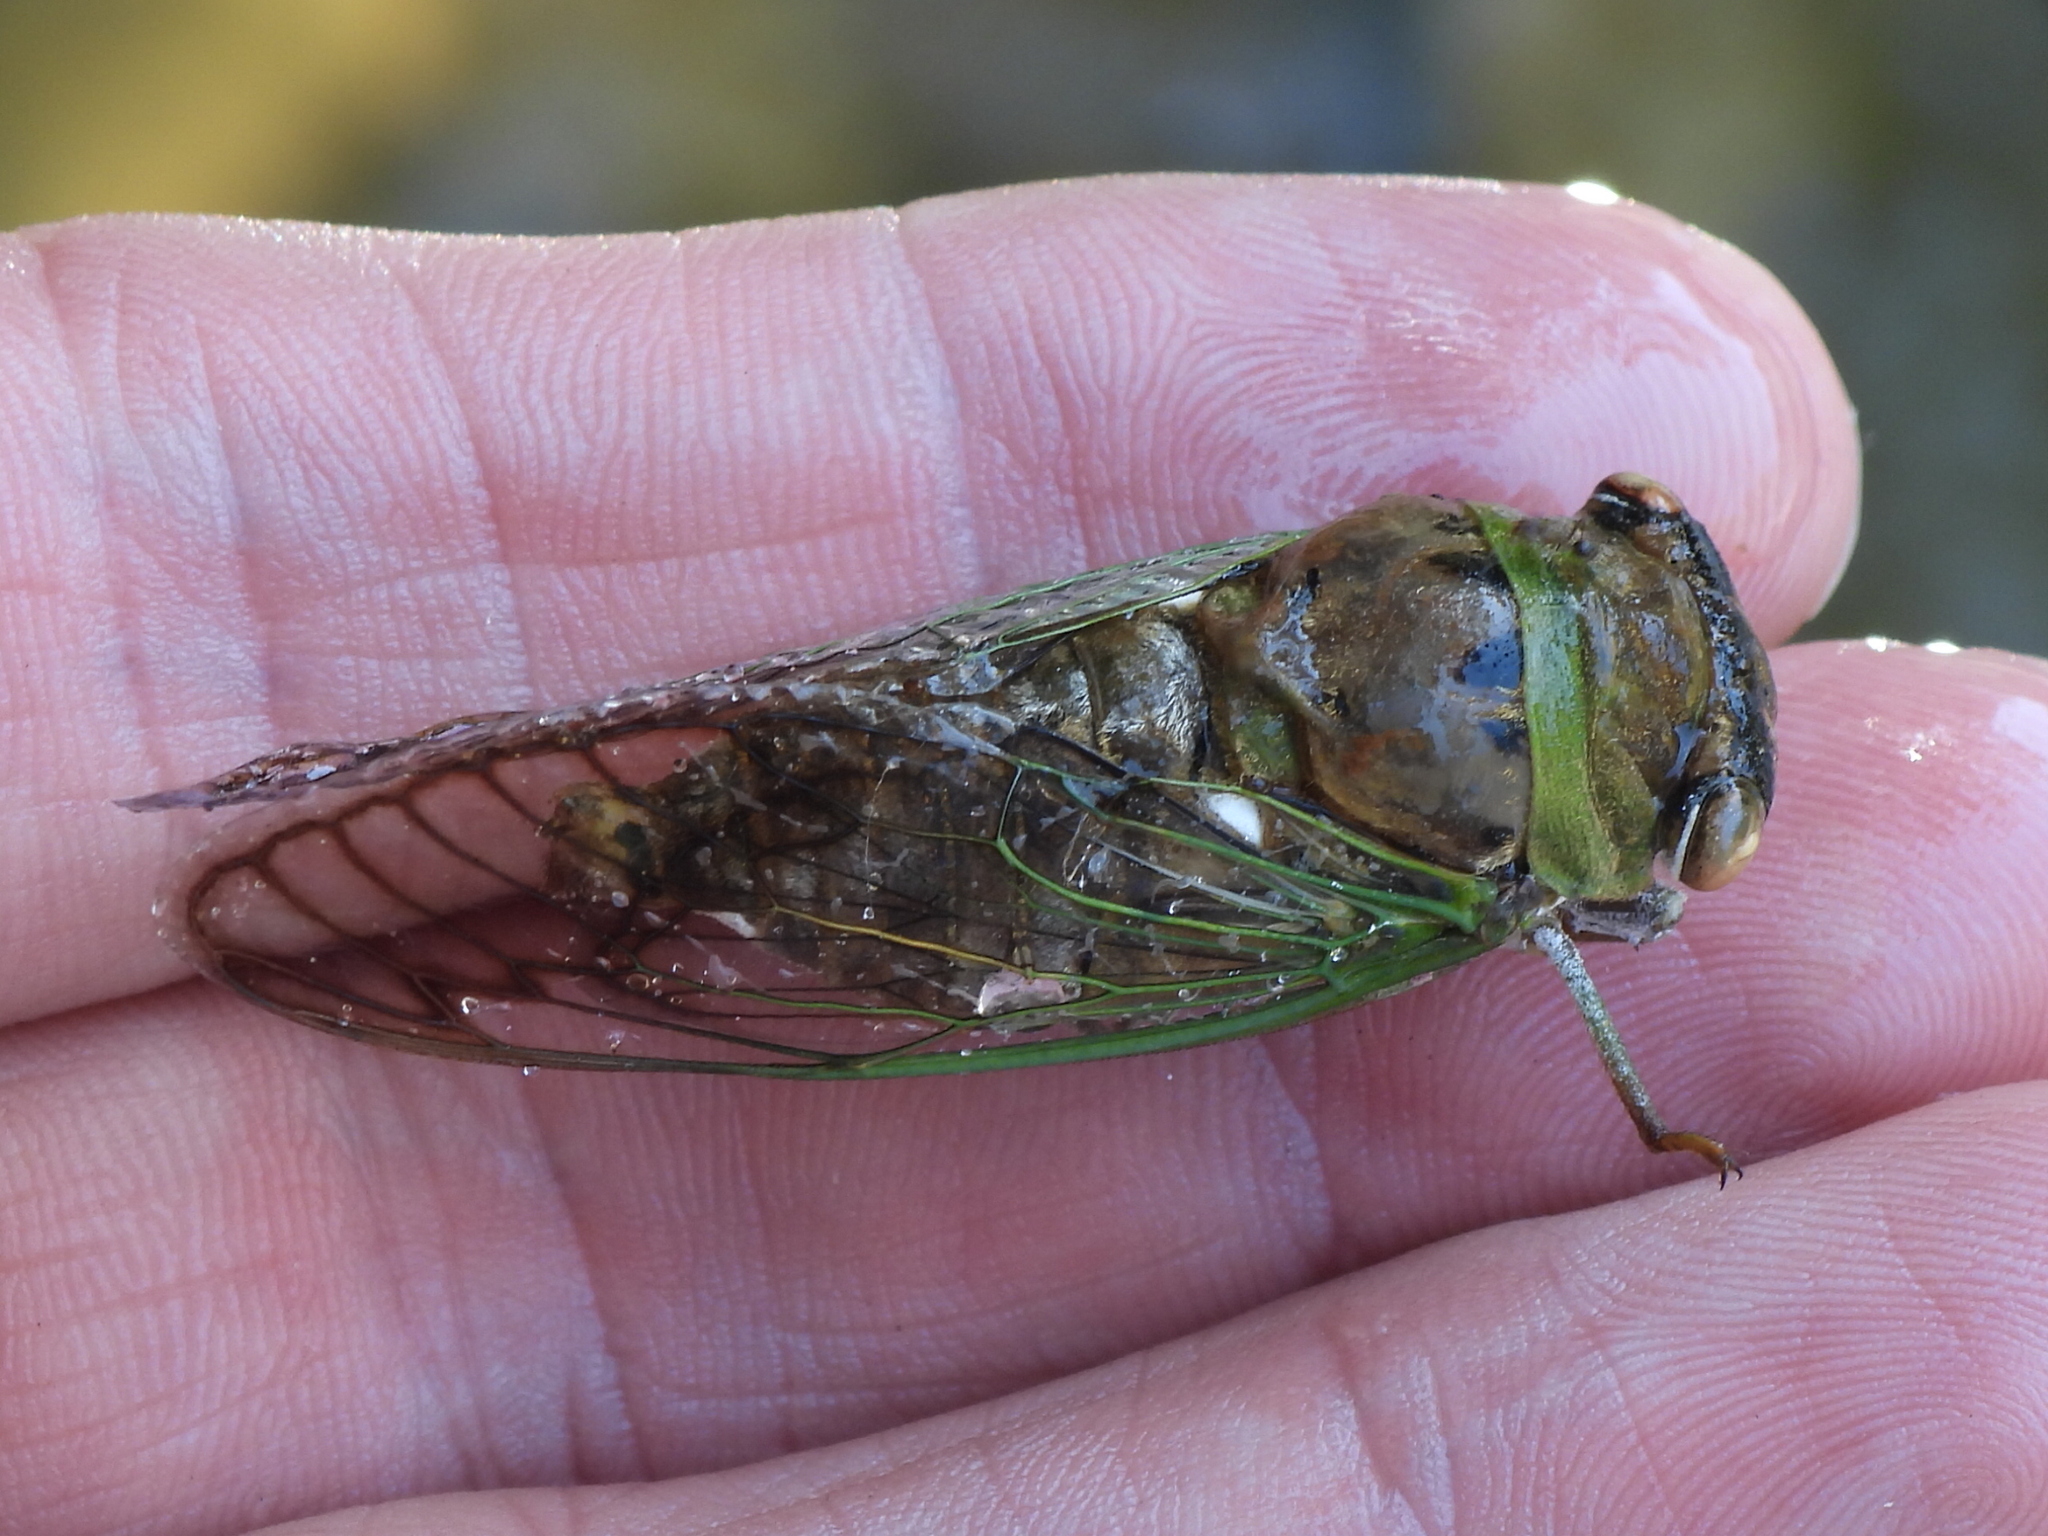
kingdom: Animalia
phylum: Arthropoda
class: Insecta
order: Hemiptera
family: Cicadidae
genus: Neotibicen
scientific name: Neotibicen superbus
